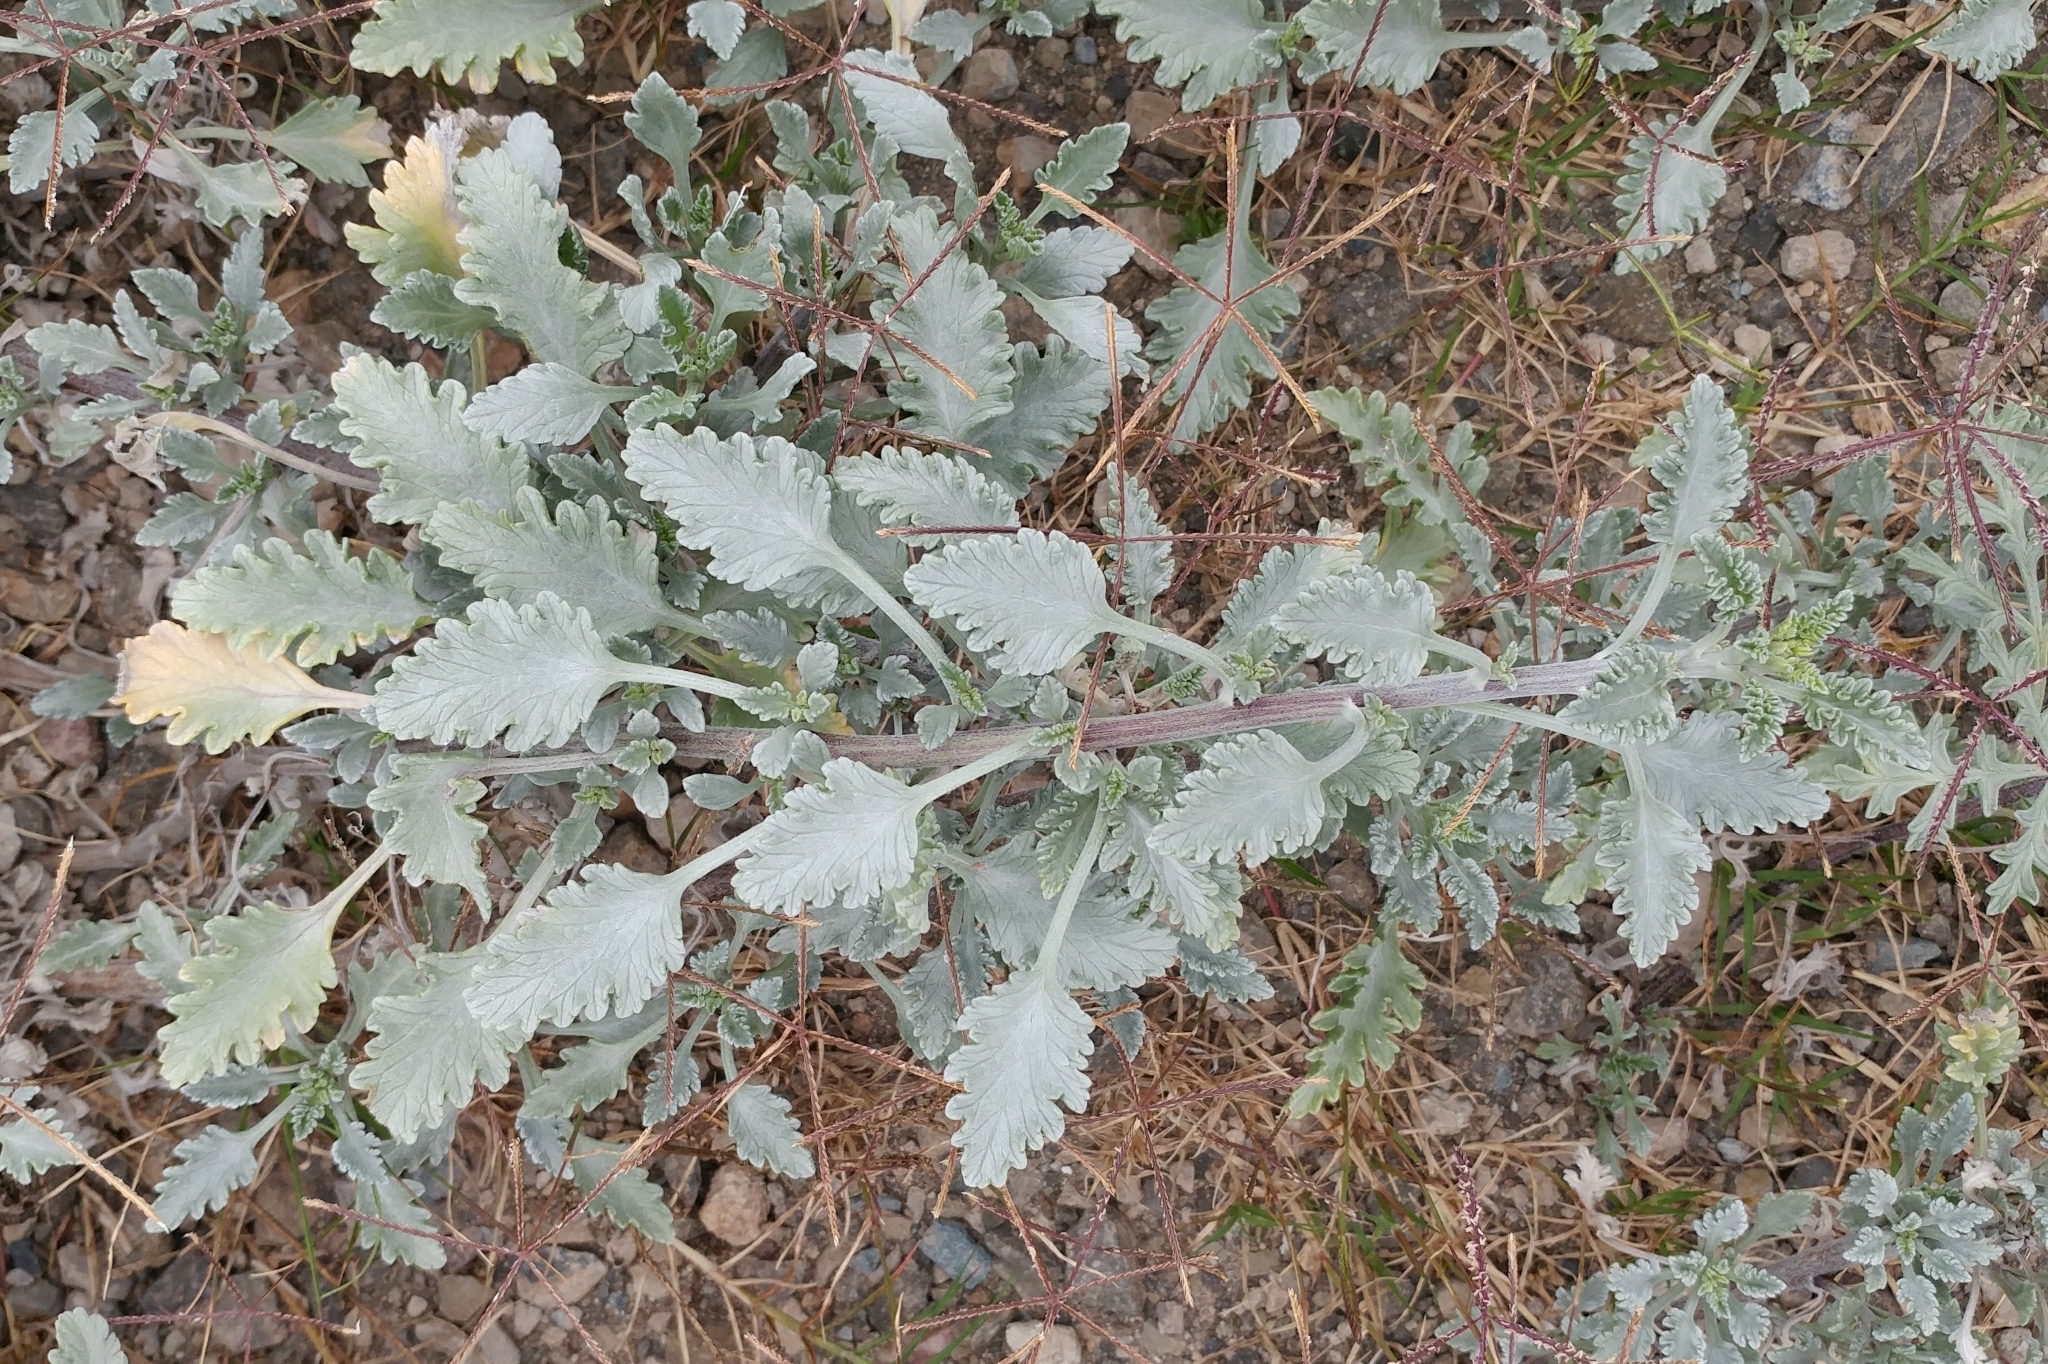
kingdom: Plantae
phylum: Tracheophyta
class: Magnoliopsida
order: Asterales
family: Asteraceae
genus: Ambrosia
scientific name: Ambrosia chamissonis
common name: Beachbur
